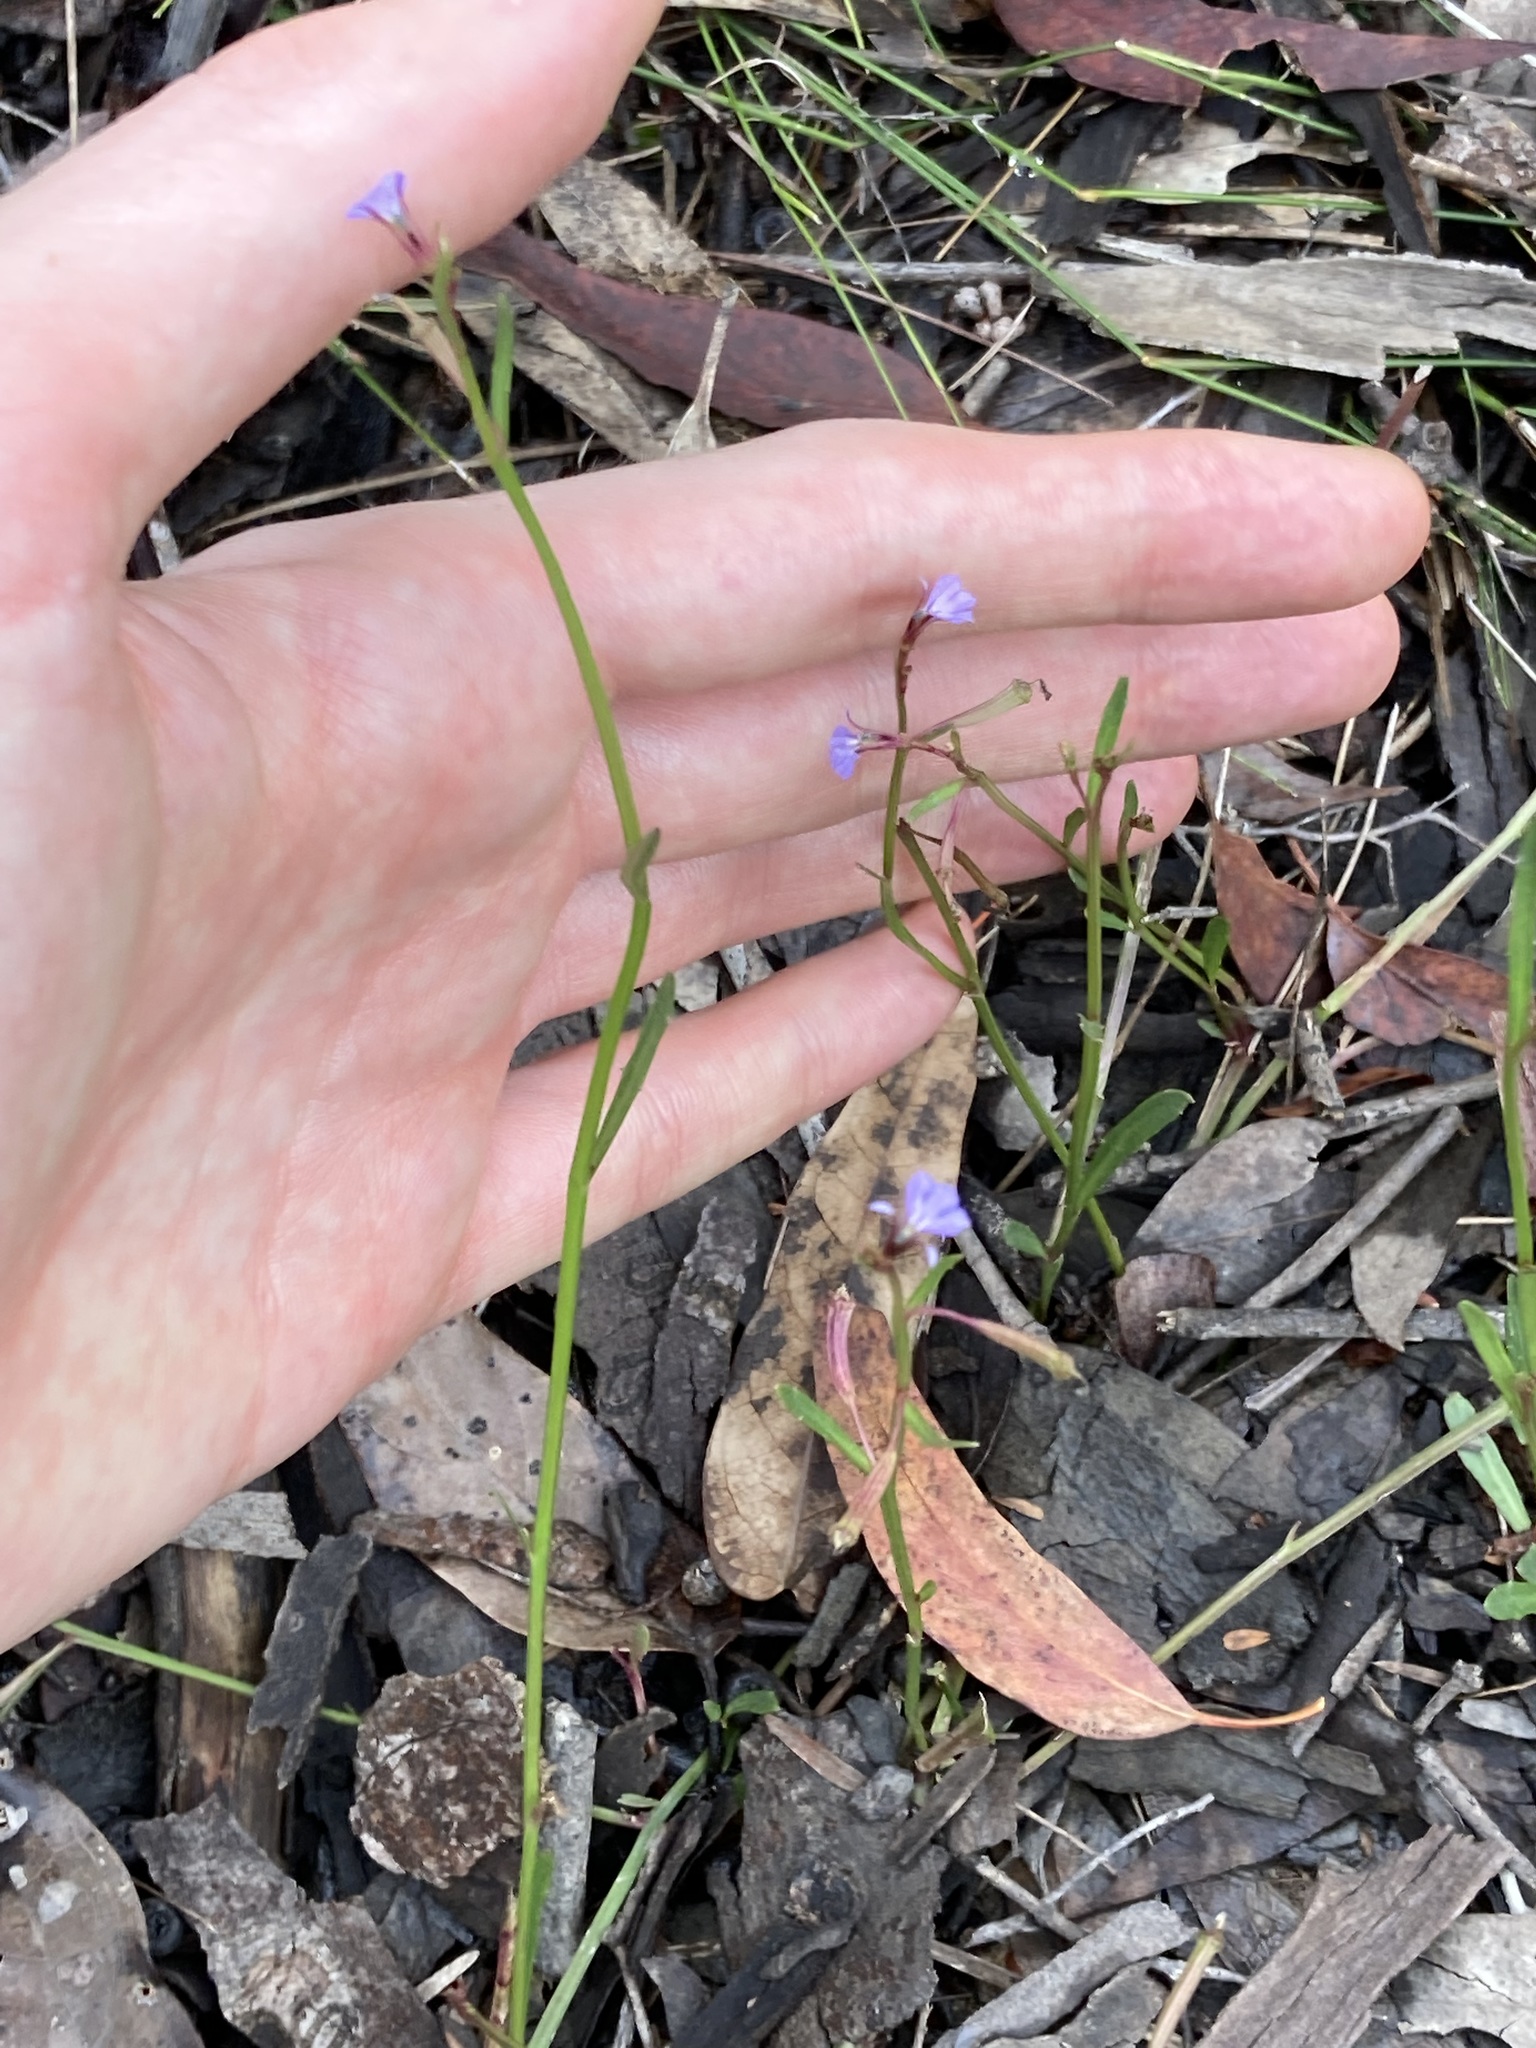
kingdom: Plantae
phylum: Tracheophyta
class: Magnoliopsida
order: Asterales
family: Campanulaceae
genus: Lobelia
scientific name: Lobelia anceps
